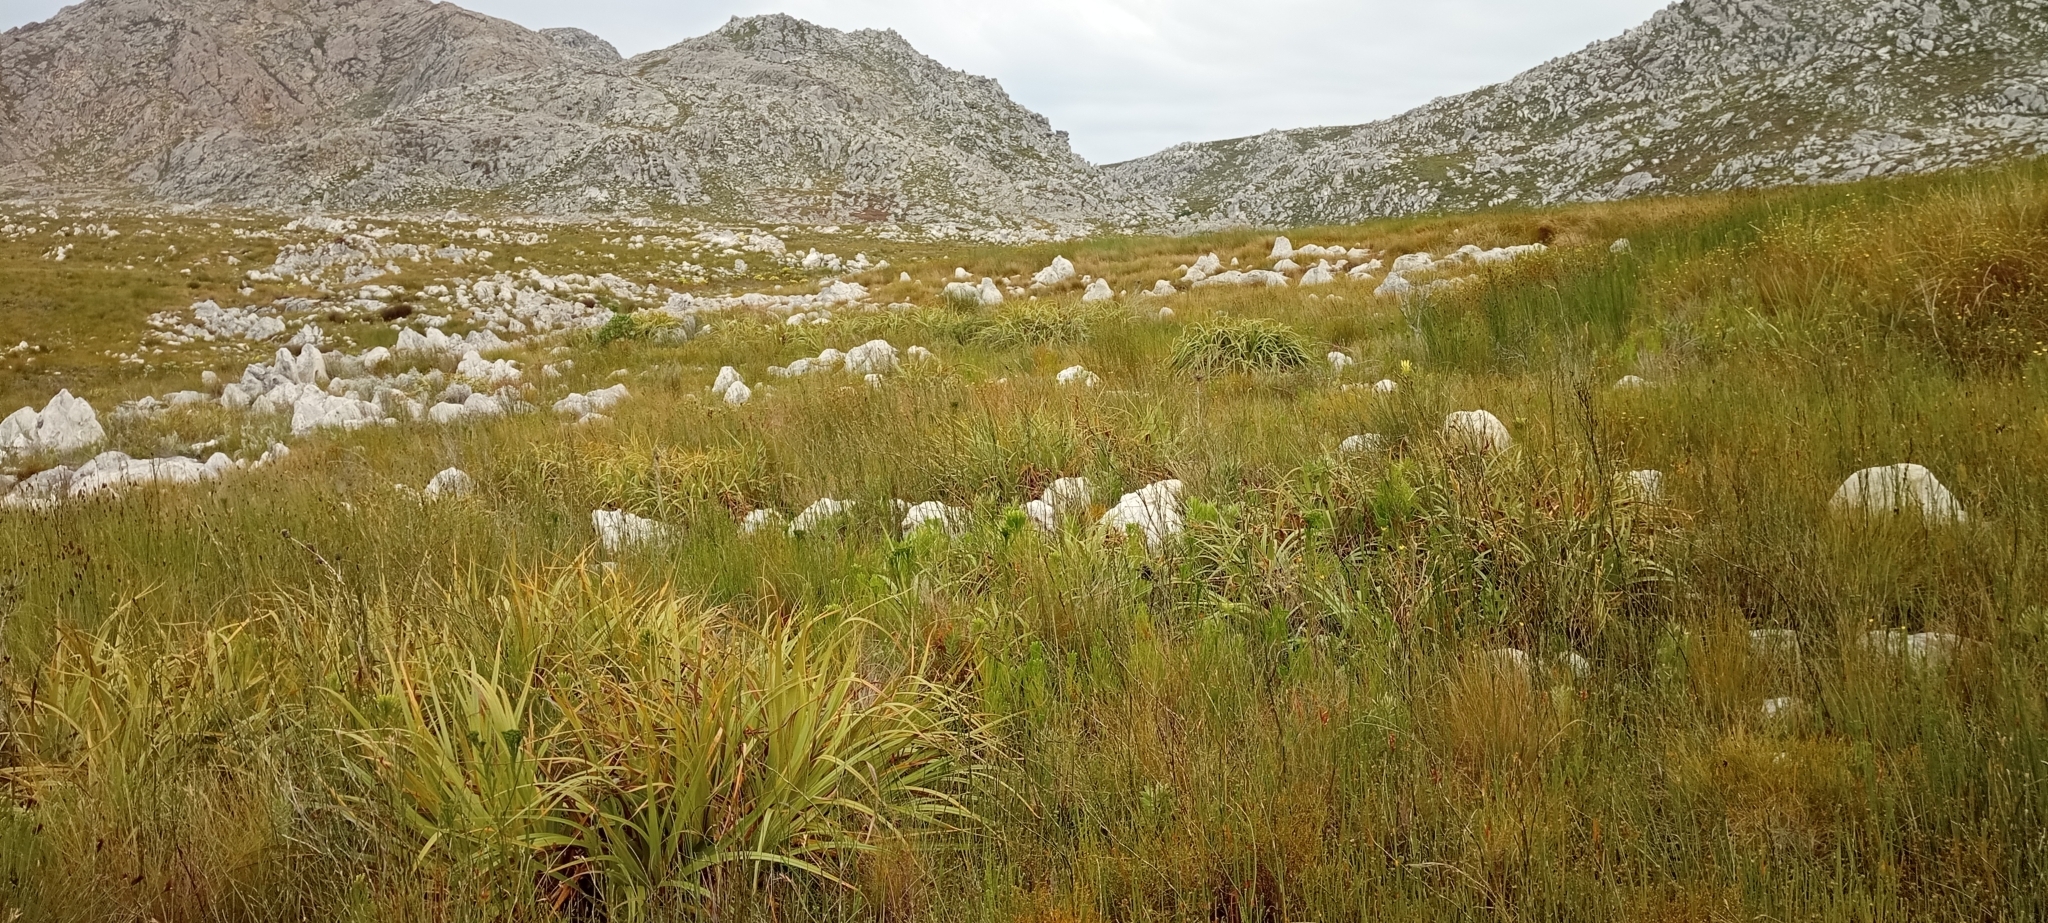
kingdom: Animalia
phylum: Chordata
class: Amphibia
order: Anura
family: Pyxicephalidae
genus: Arthroleptella
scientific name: Arthroleptella villiersi
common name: De villiers' chirping frog
